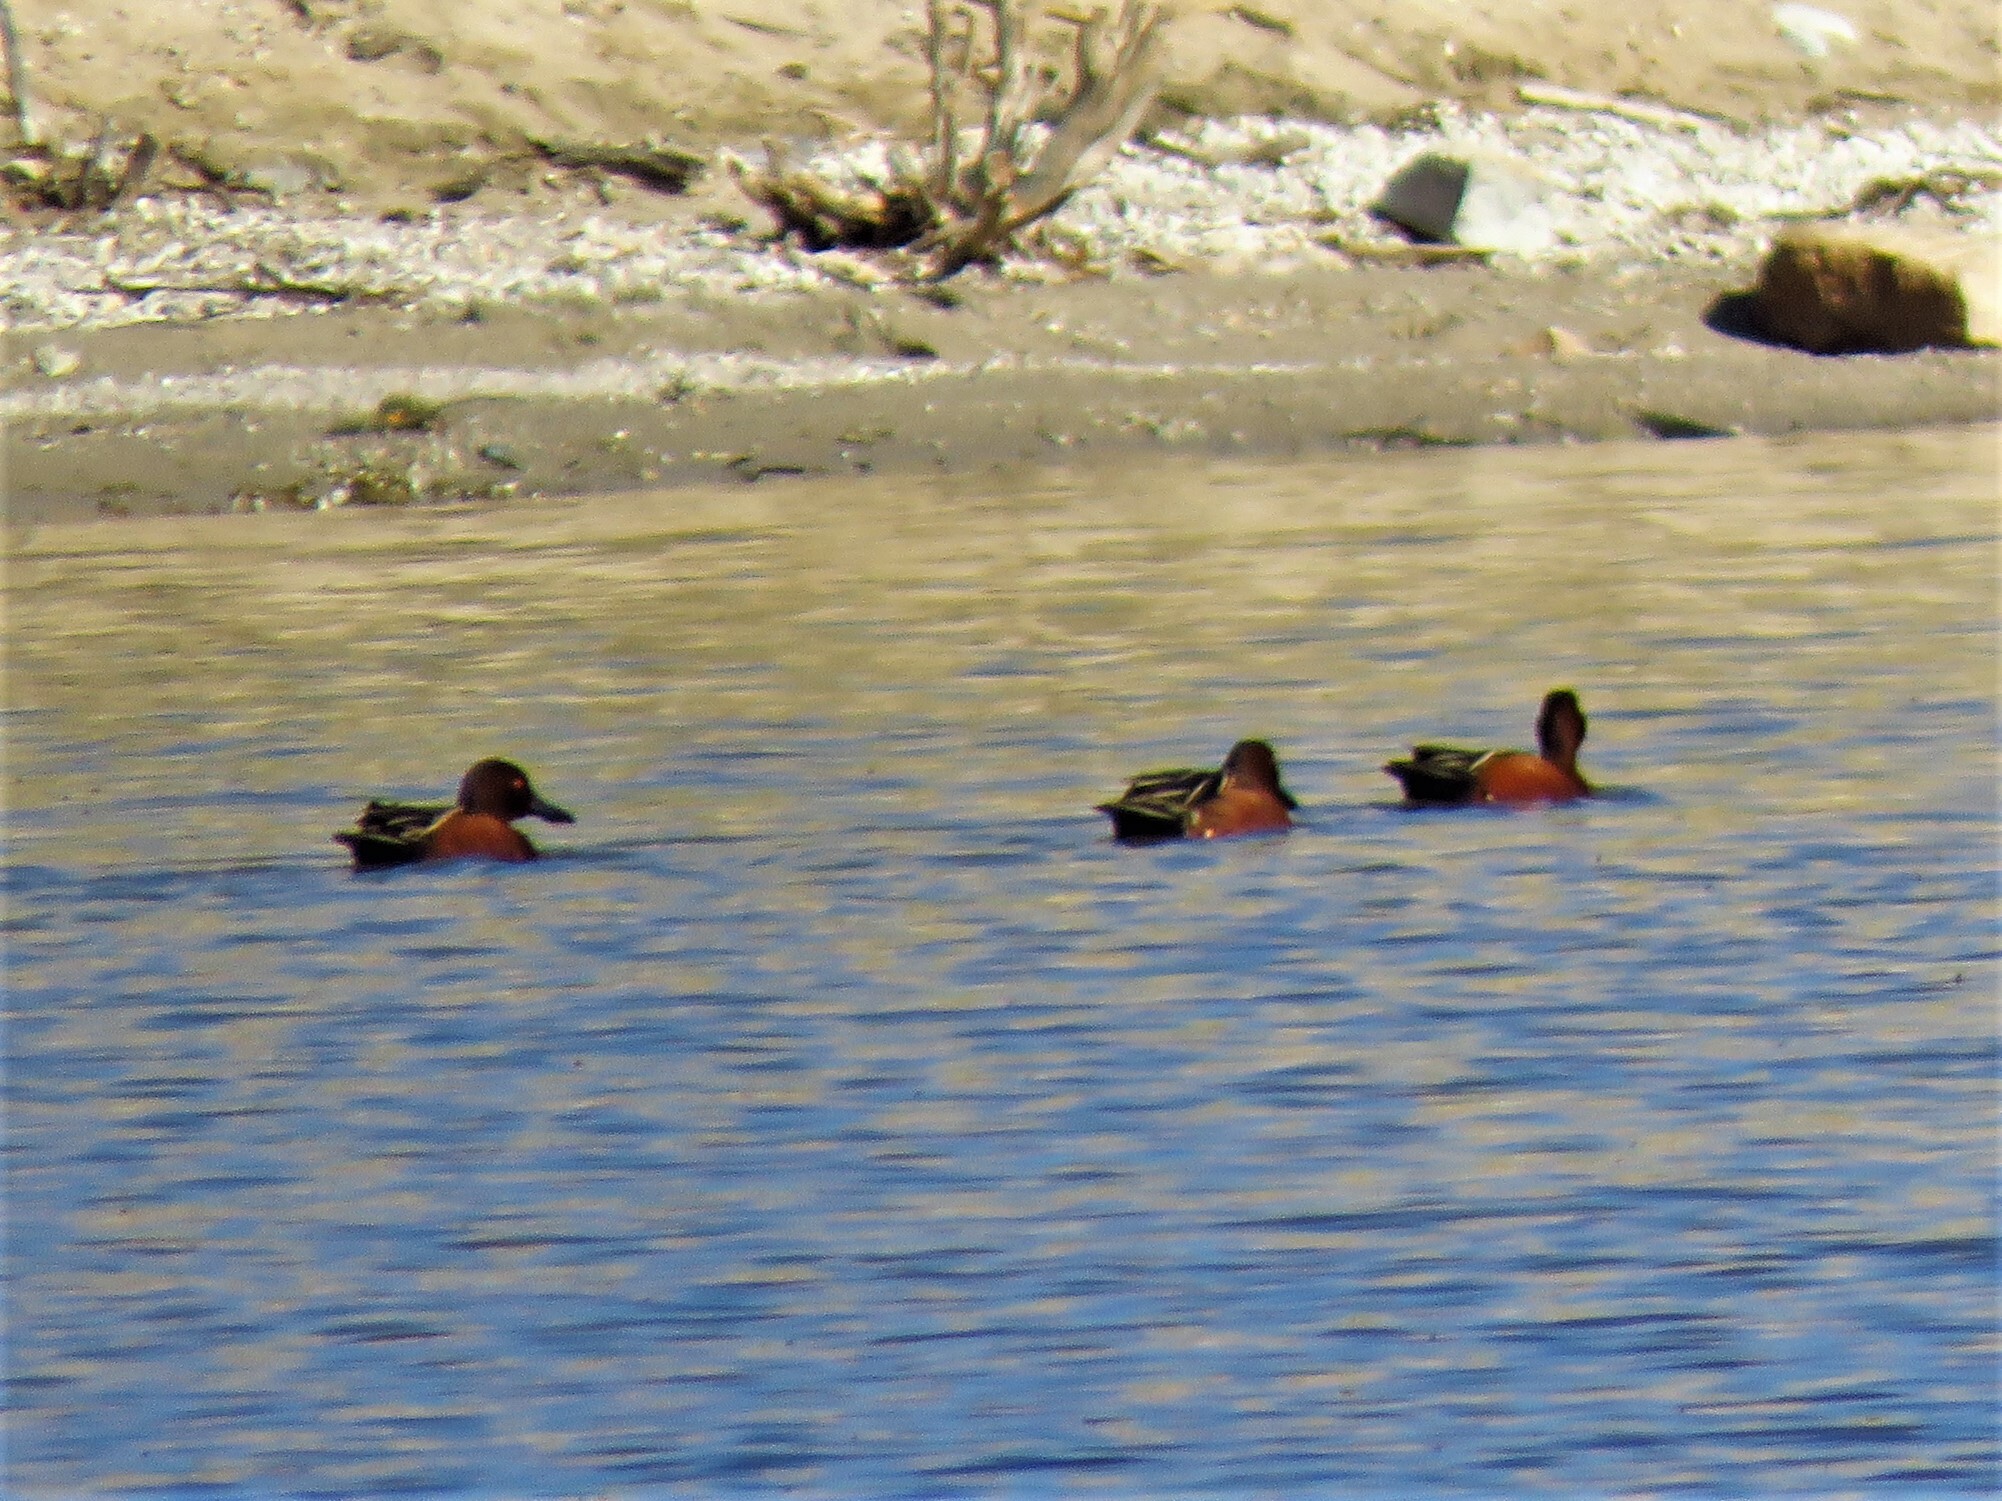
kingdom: Animalia
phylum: Chordata
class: Aves
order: Anseriformes
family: Anatidae
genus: Spatula
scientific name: Spatula cyanoptera
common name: Cinnamon teal
